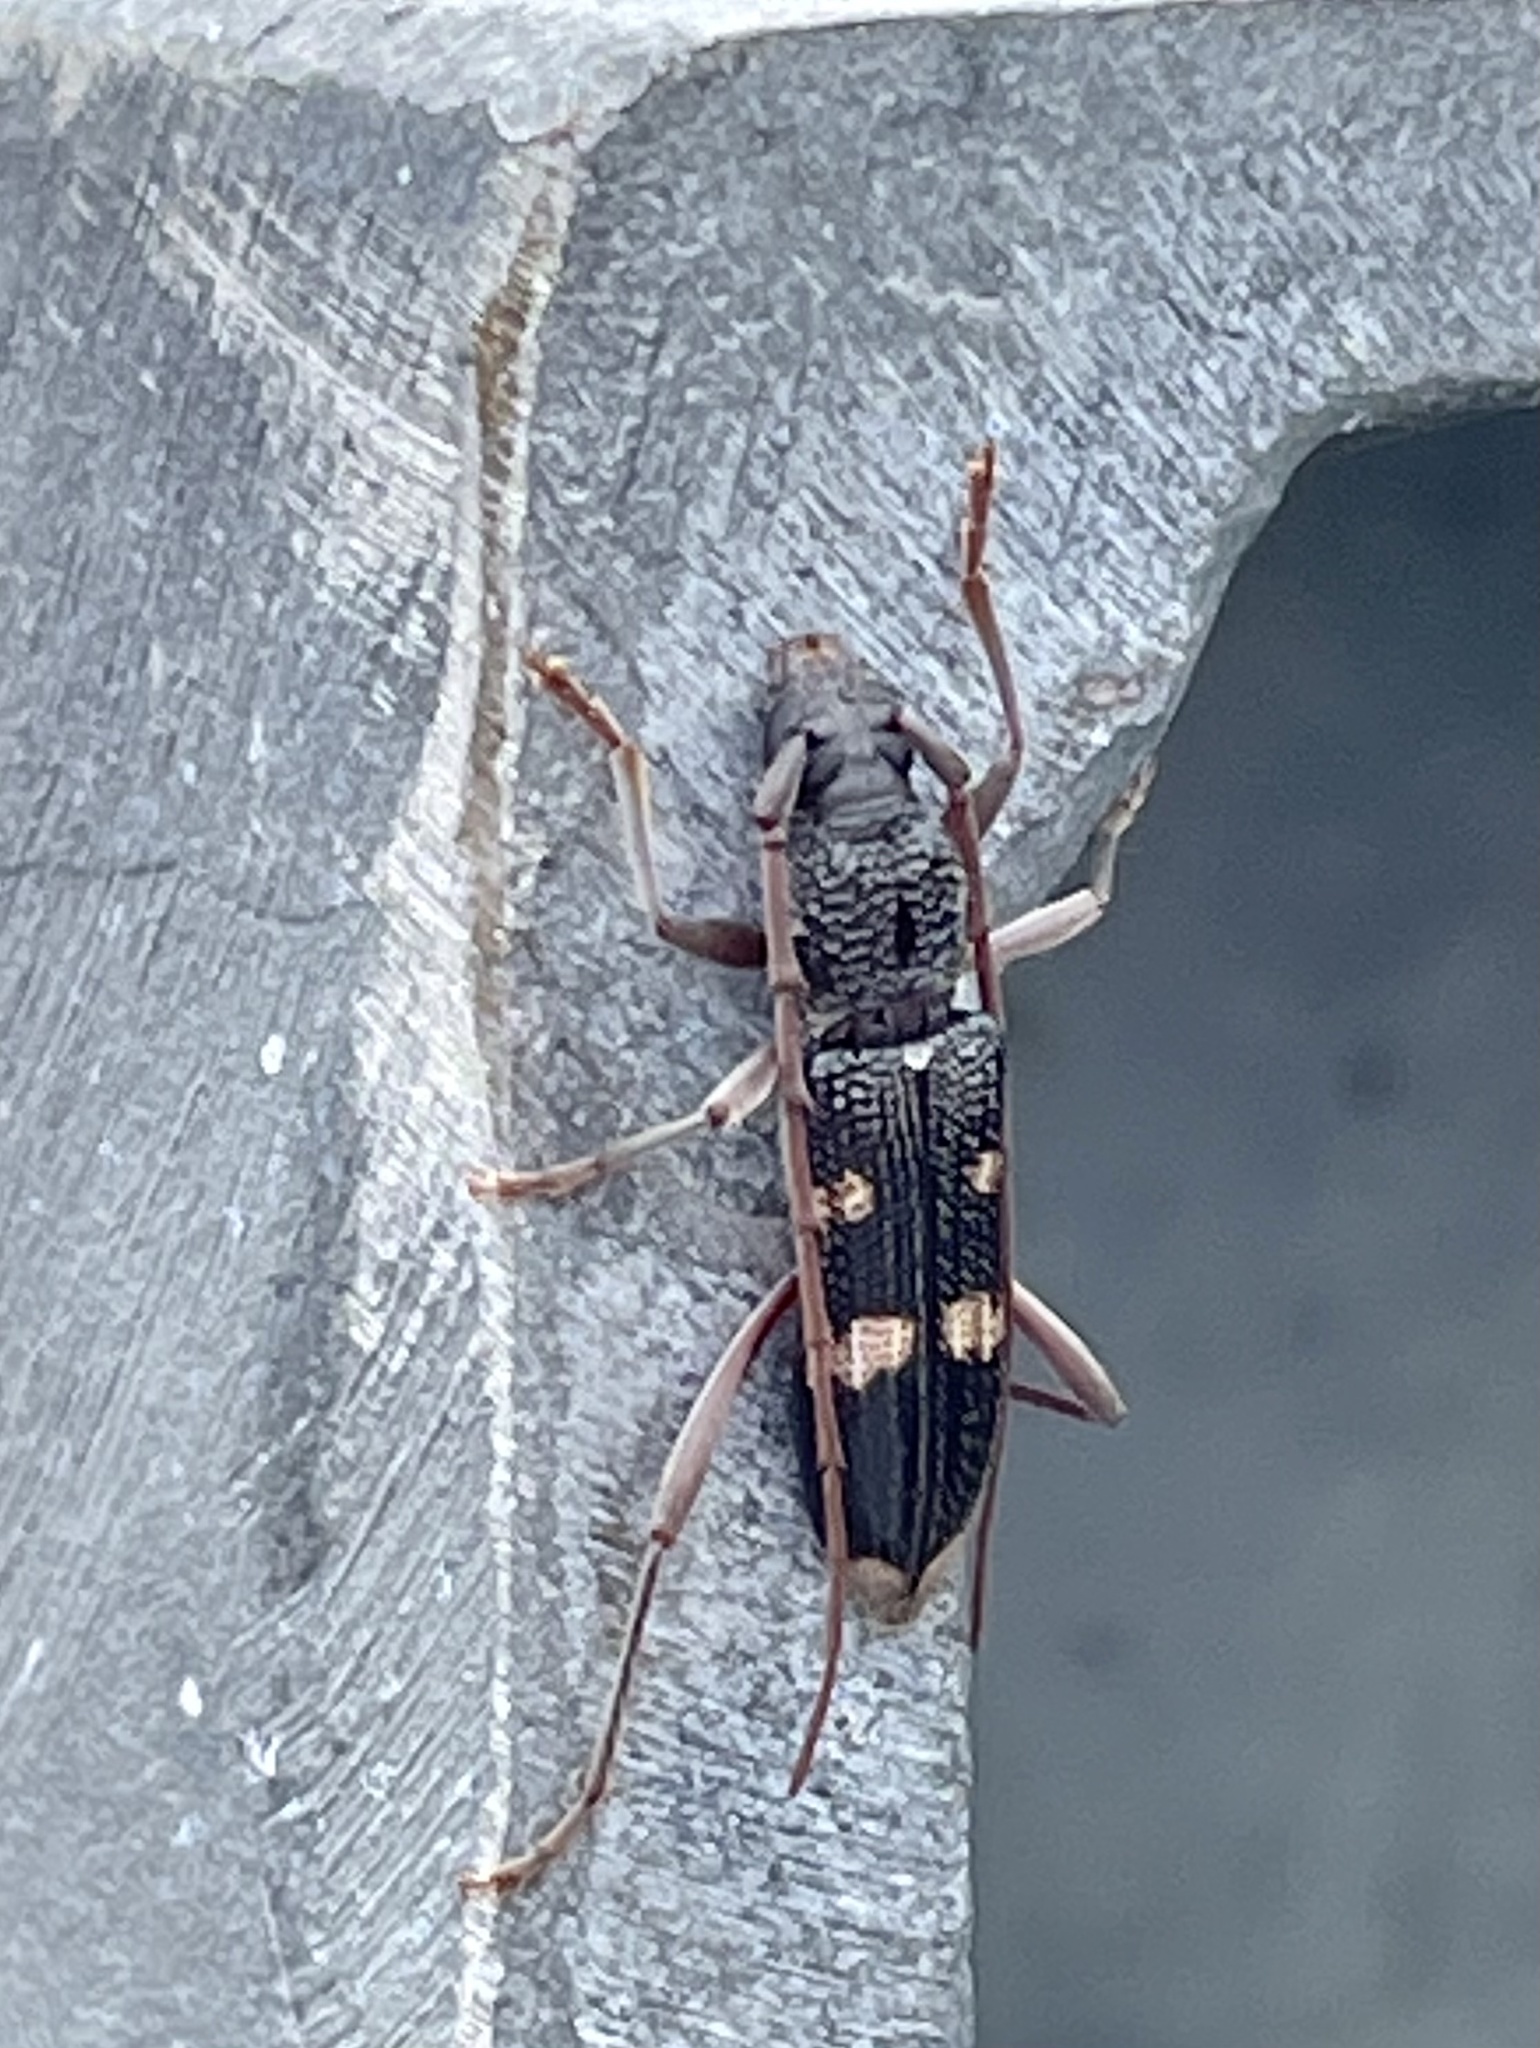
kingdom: Animalia
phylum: Arthropoda
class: Insecta
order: Coleoptera
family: Cerambycidae
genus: Coleocoptus
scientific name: Coleocoptus senio
